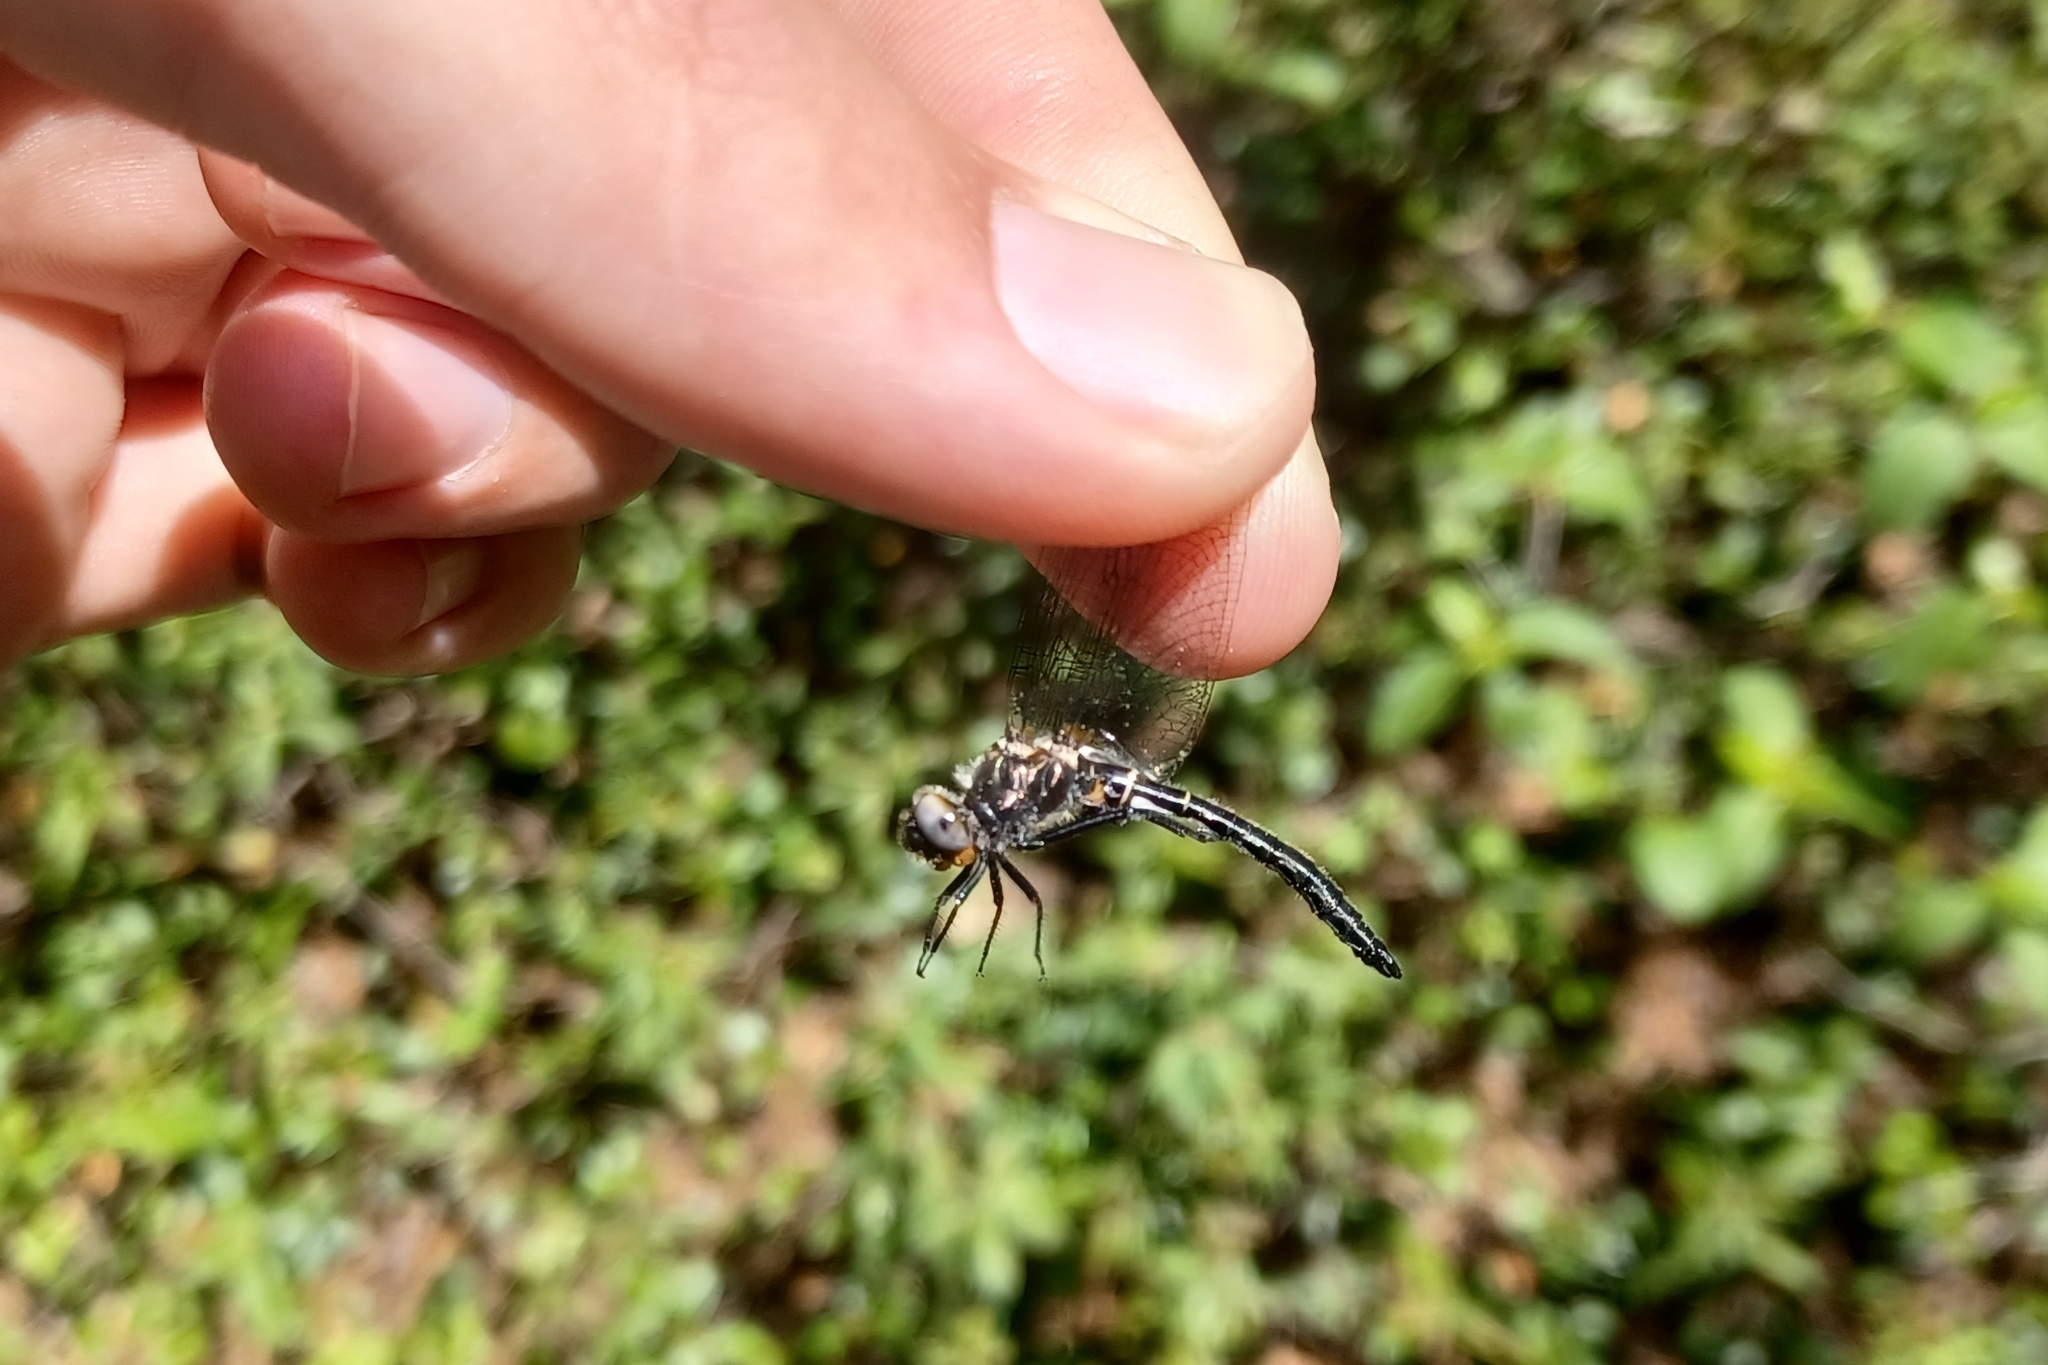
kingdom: Animalia
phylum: Arthropoda
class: Insecta
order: Odonata
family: Corduliidae
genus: Williamsonia
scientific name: Williamsonia fletcheri
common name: Ebony boghaunter
